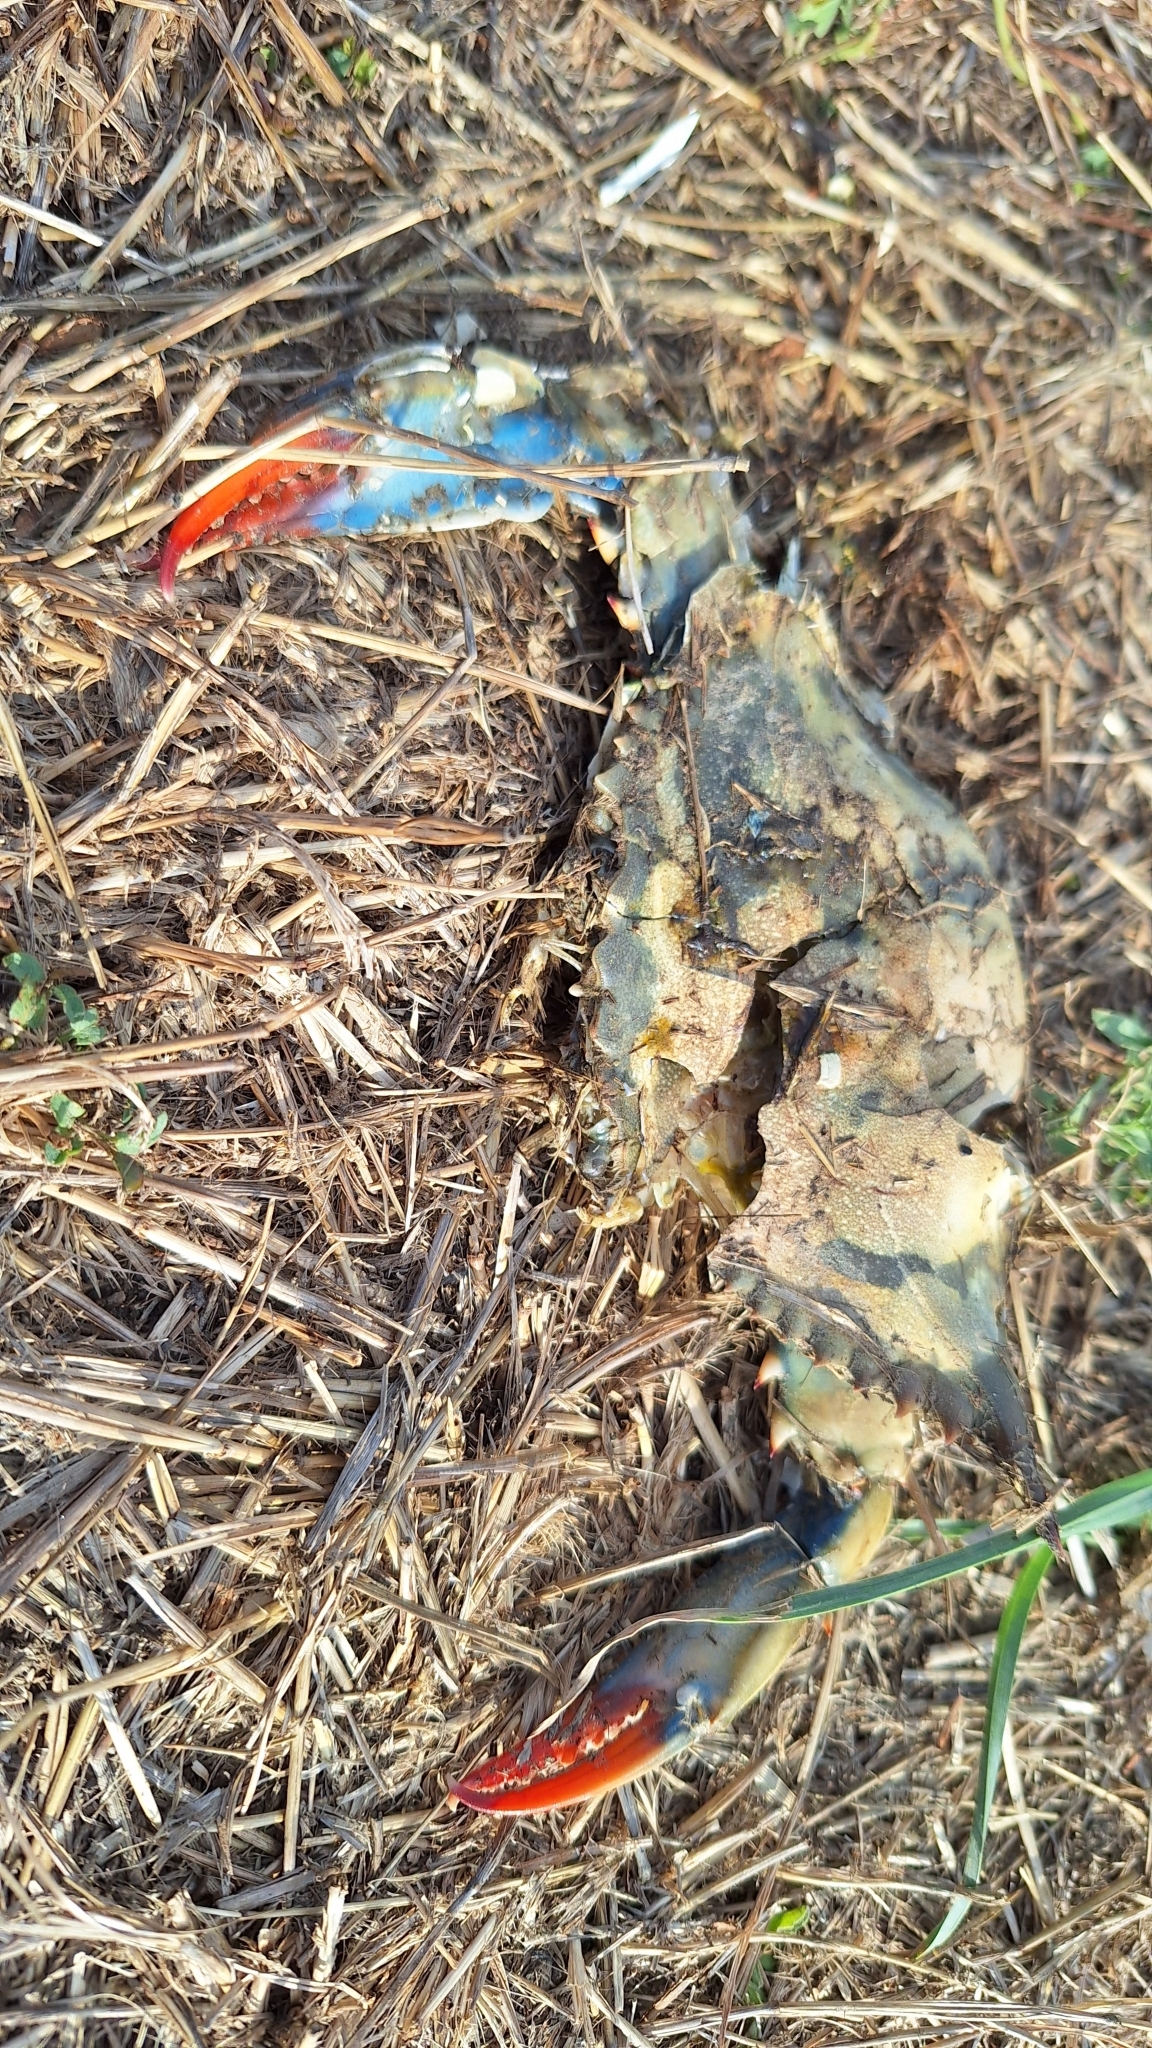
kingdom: Animalia
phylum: Arthropoda
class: Malacostraca
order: Decapoda
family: Portunidae
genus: Callinectes
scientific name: Callinectes sapidus
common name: Blue crab
